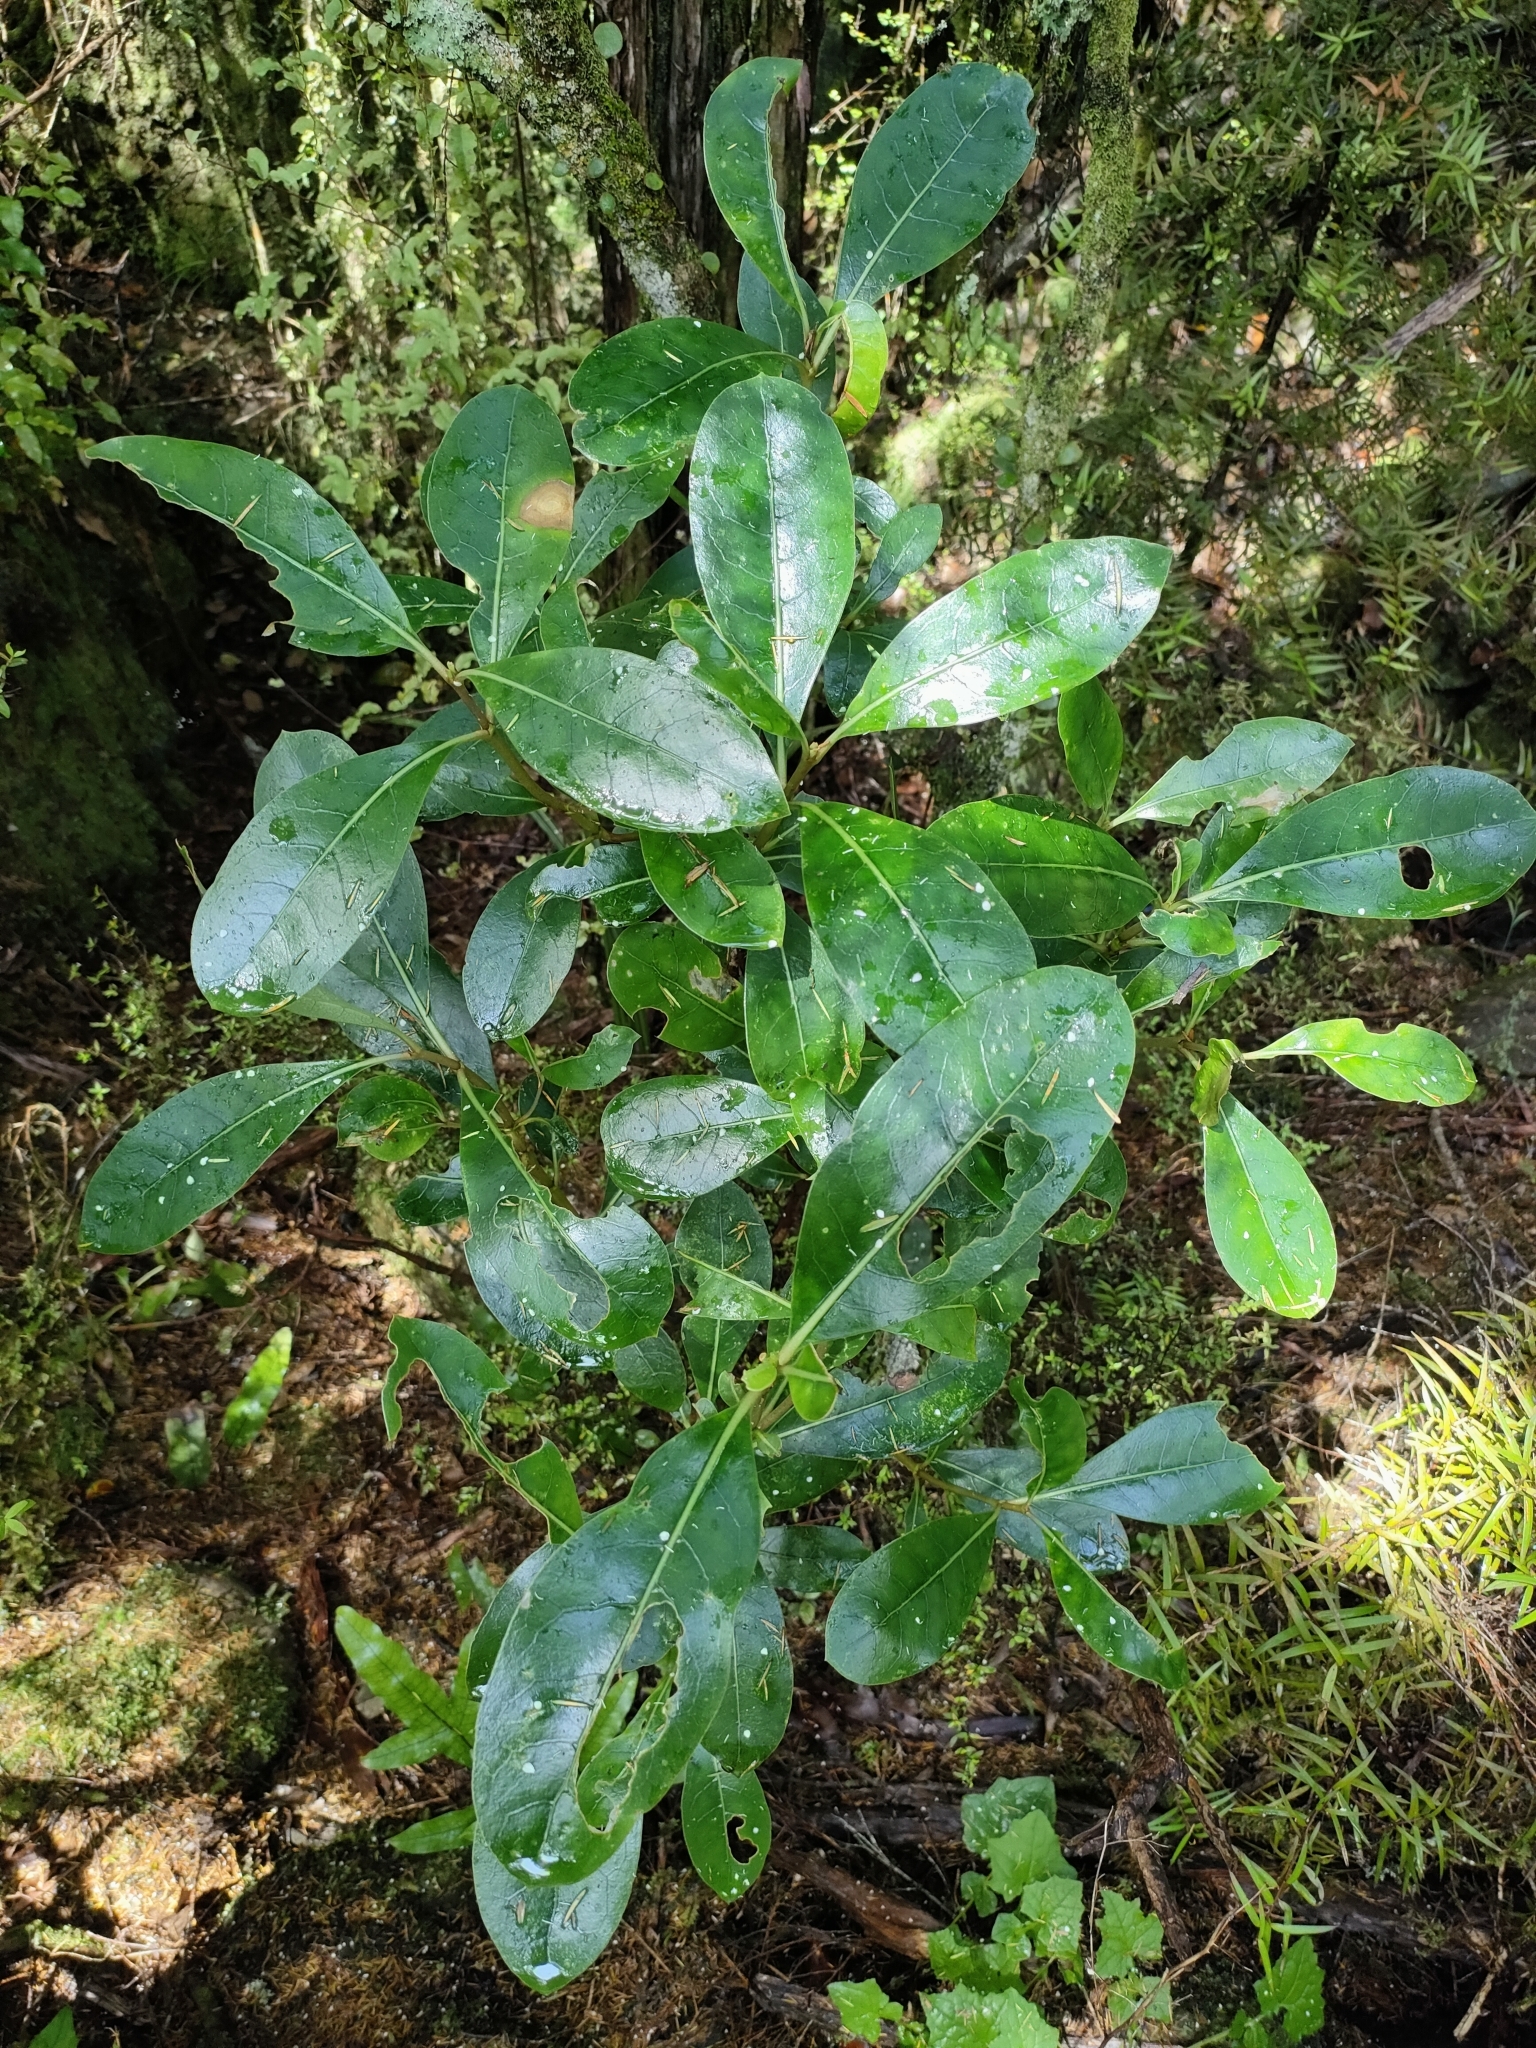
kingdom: Plantae
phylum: Tracheophyta
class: Magnoliopsida
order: Gentianales
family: Rubiaceae
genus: Coprosma
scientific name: Coprosma lucida
